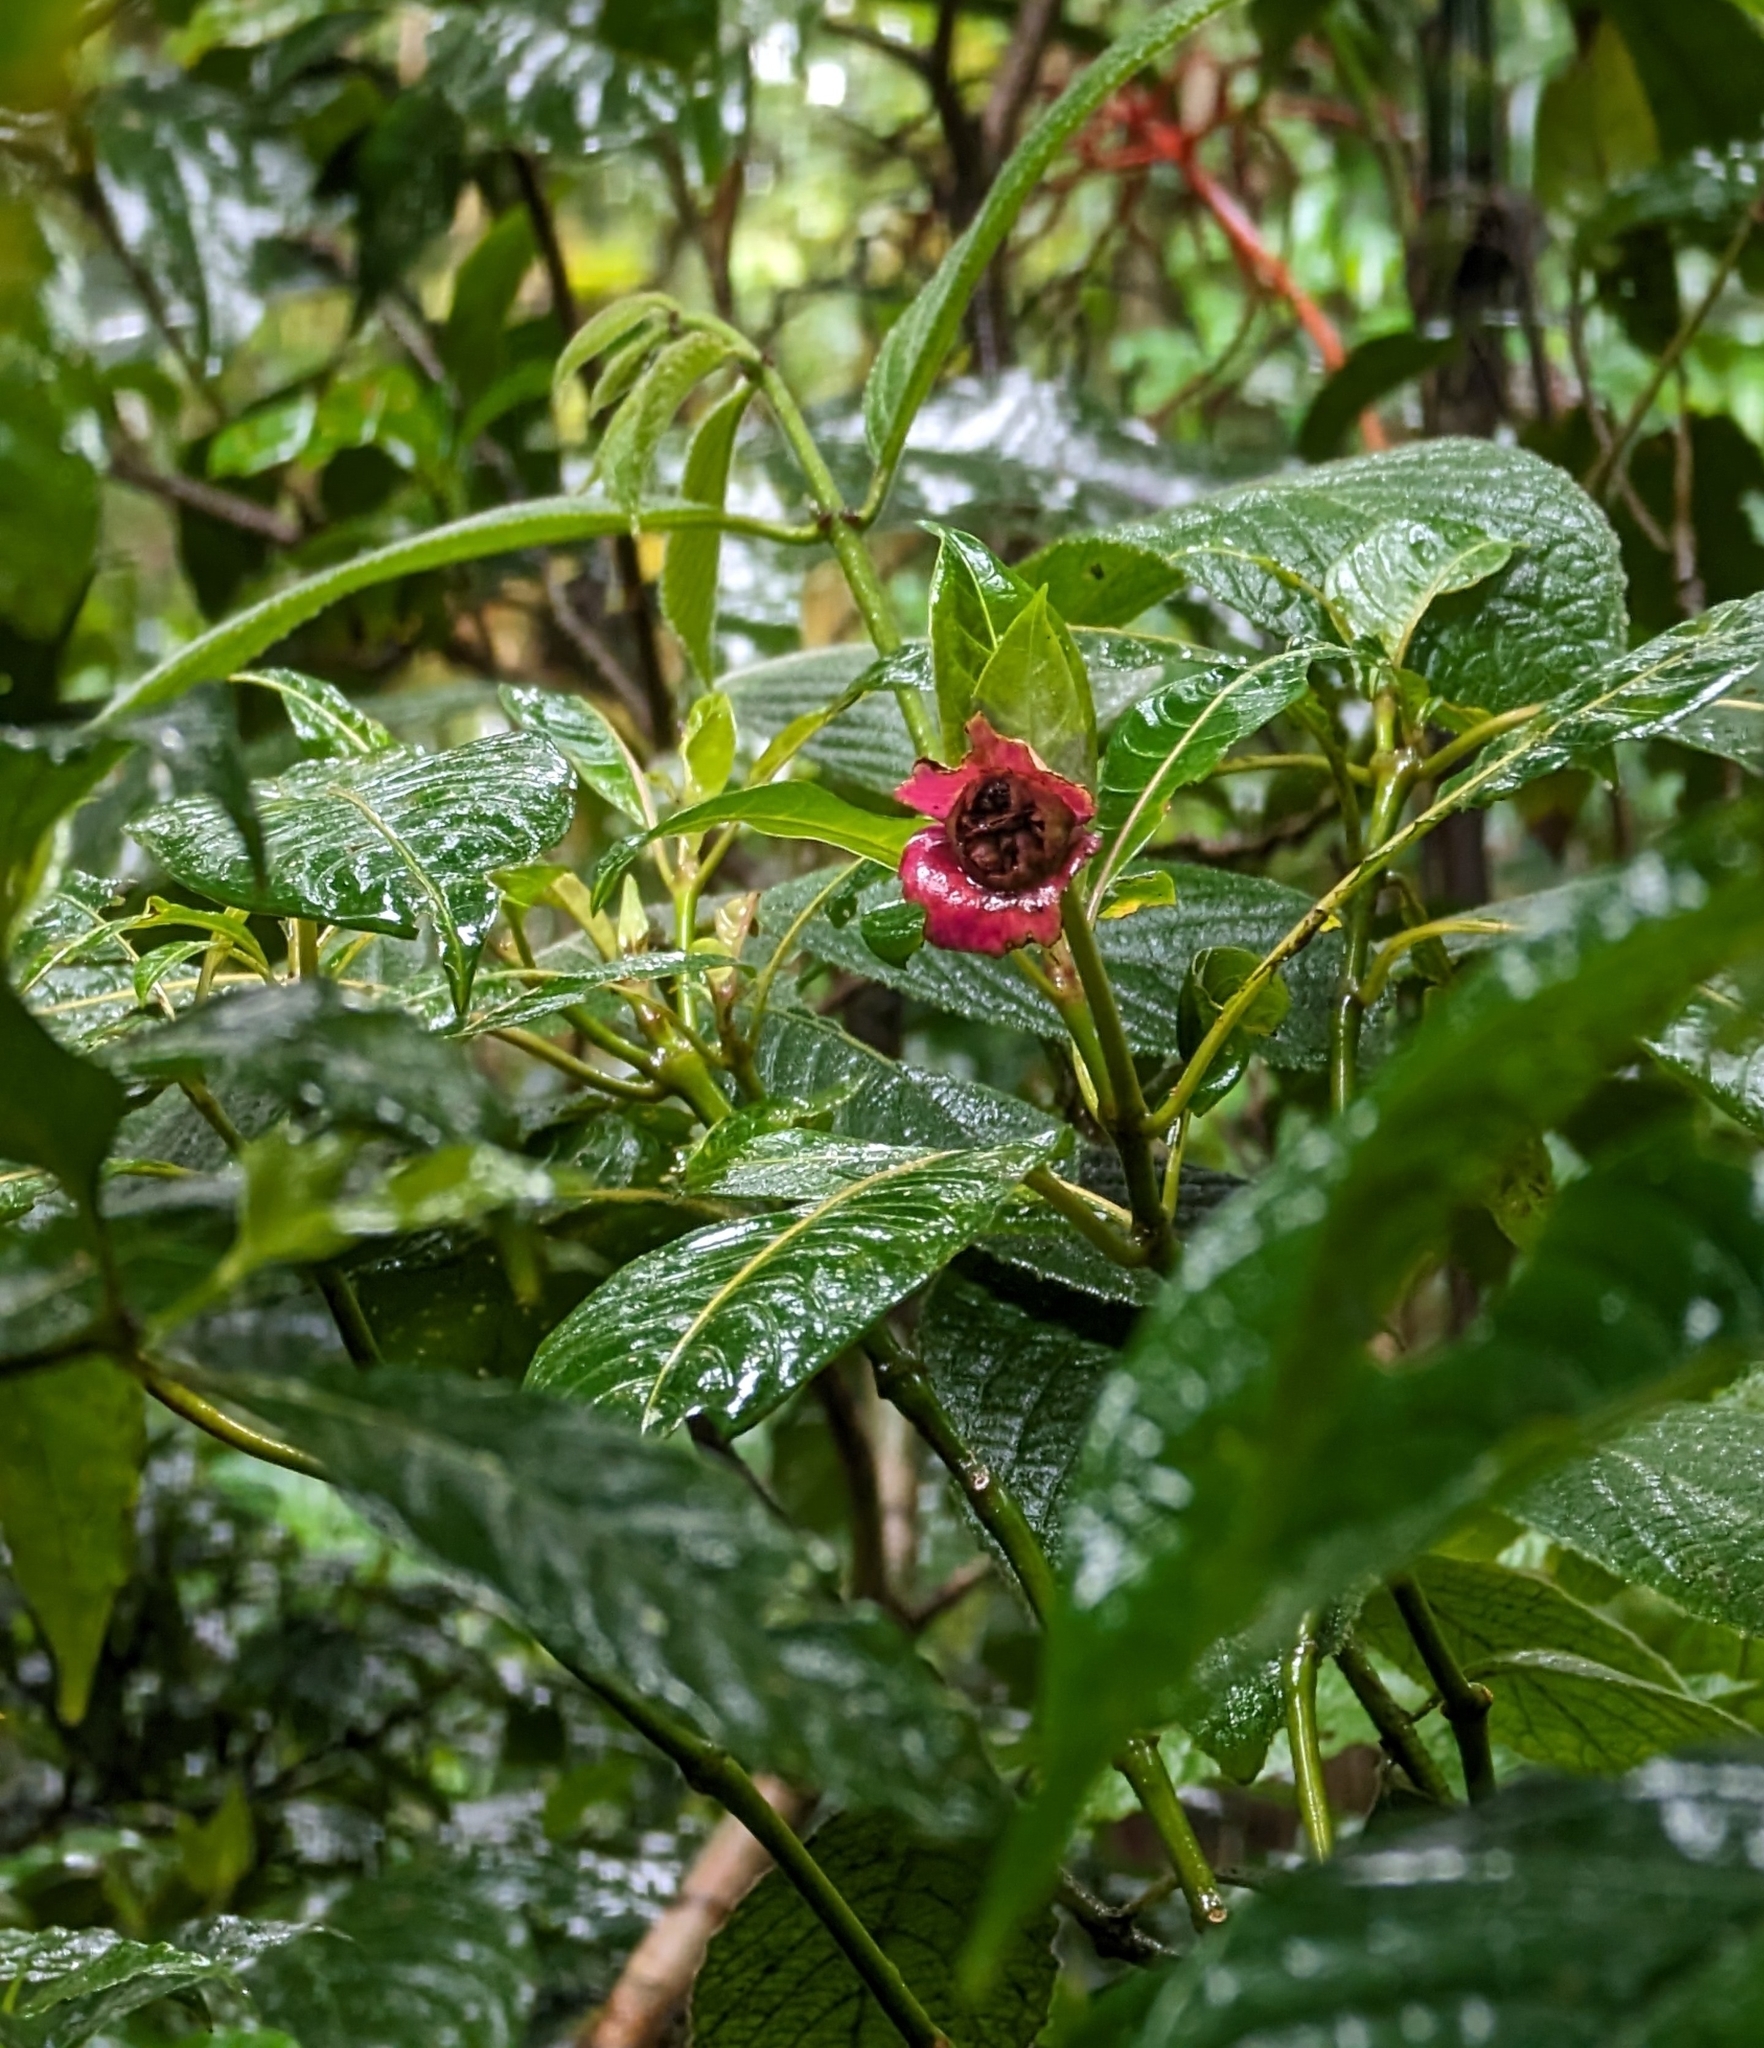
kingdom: Plantae
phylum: Tracheophyta
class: Magnoliopsida
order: Gentianales
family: Rubiaceae
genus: Palicourea
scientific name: Palicourea elata
